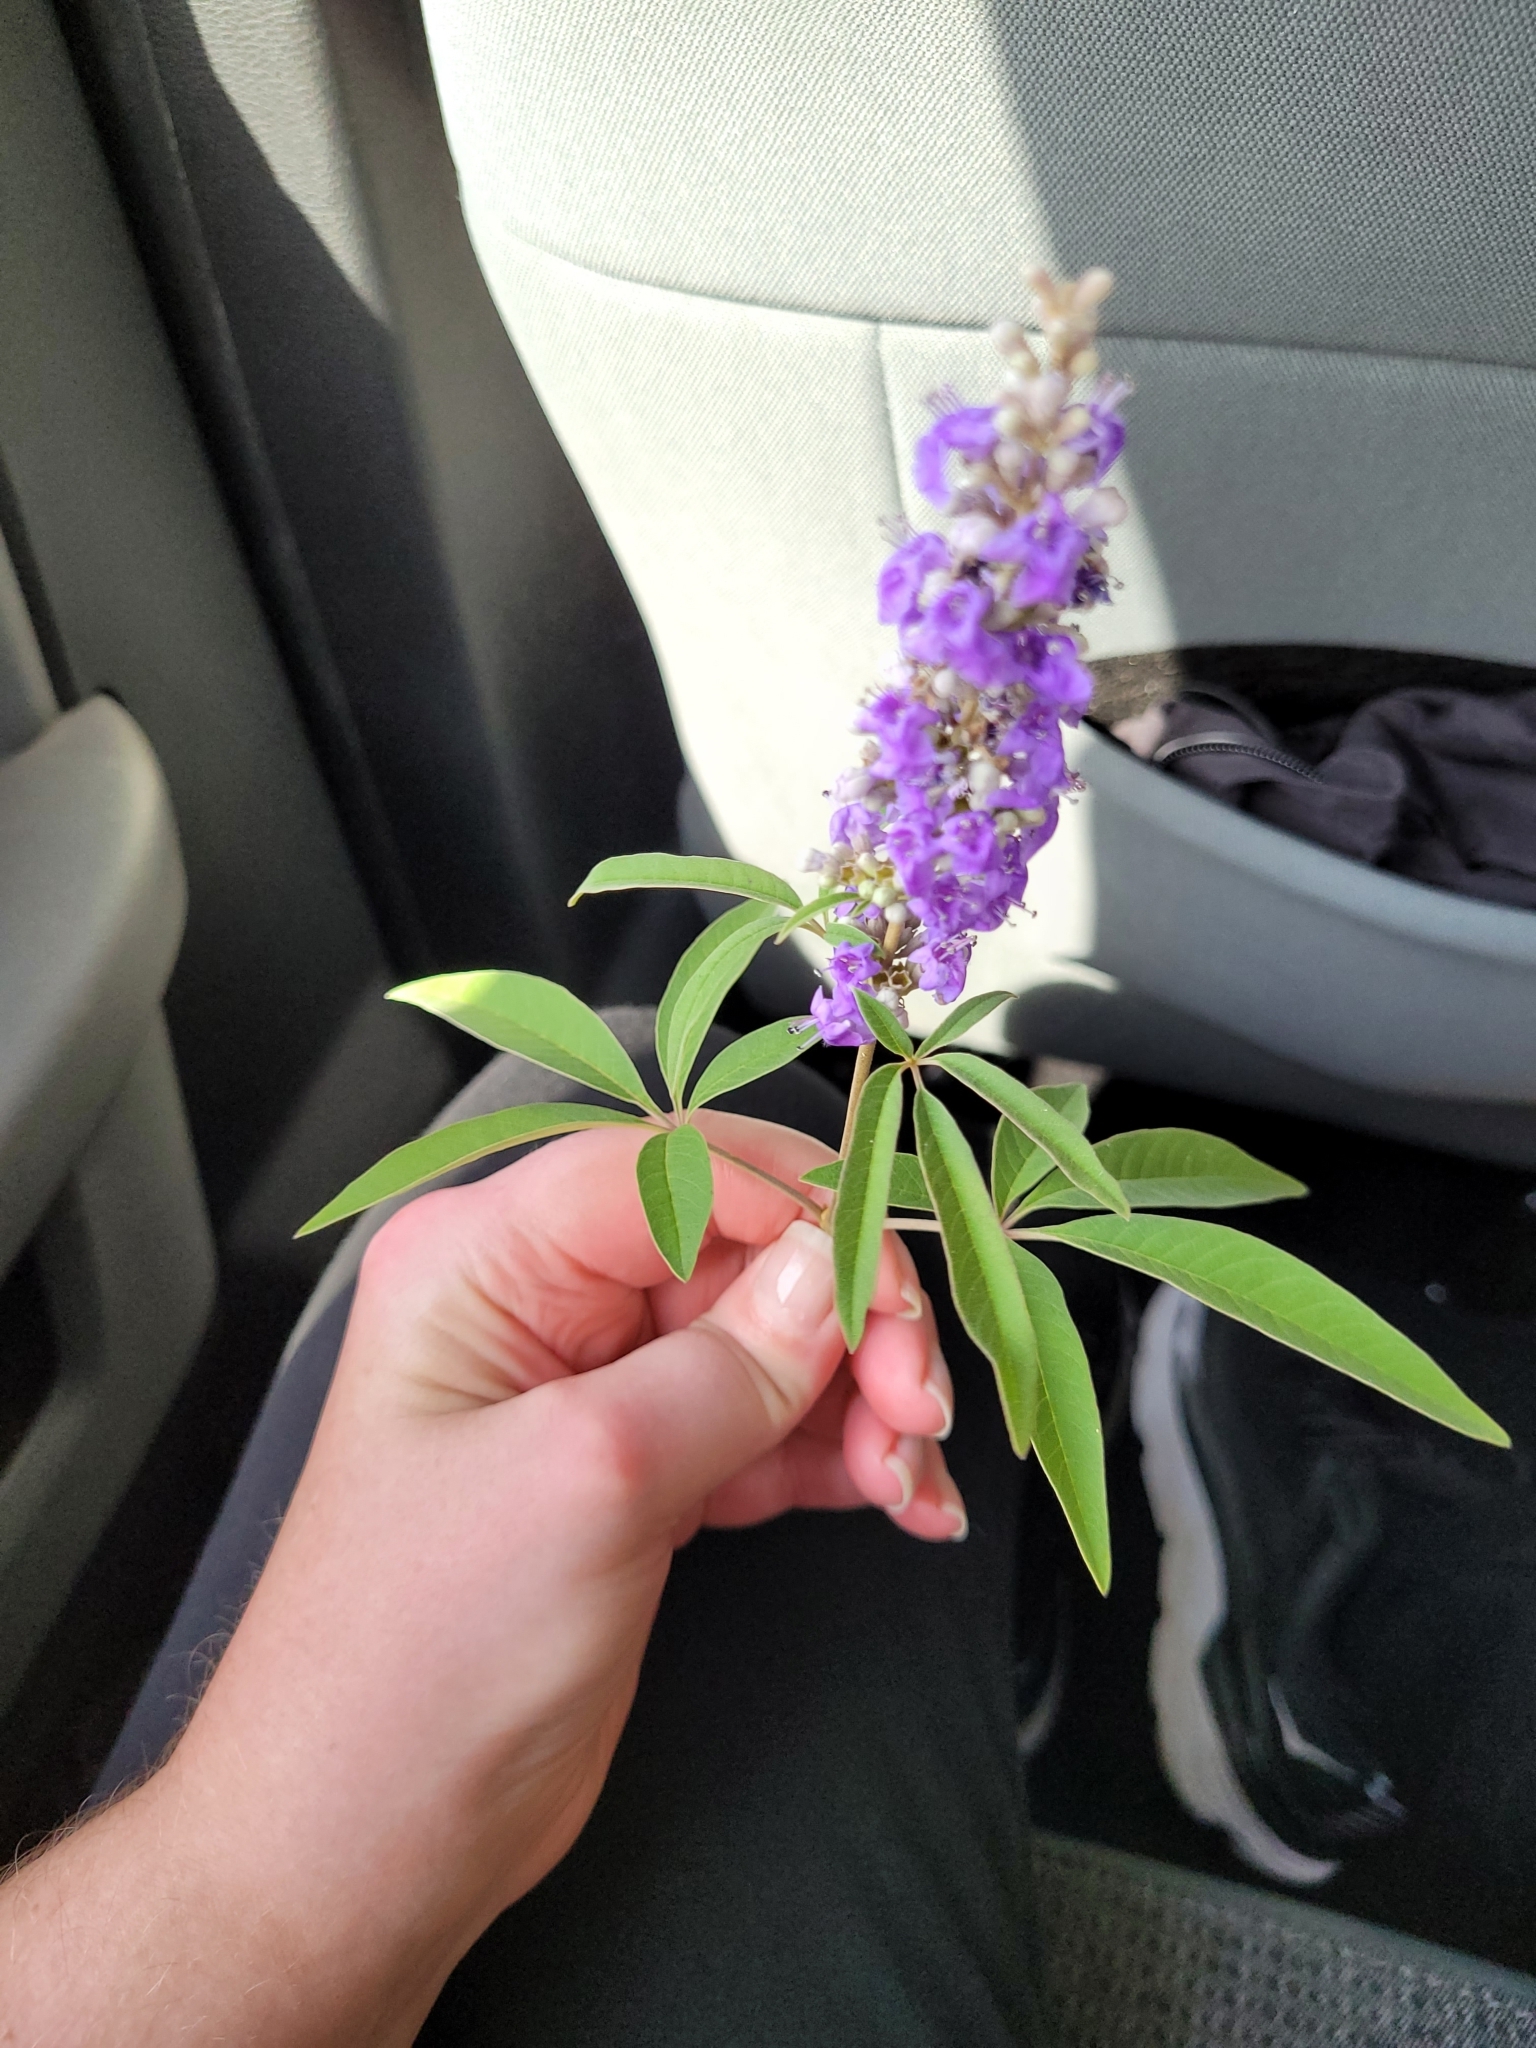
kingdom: Plantae
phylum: Tracheophyta
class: Magnoliopsida
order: Lamiales
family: Lamiaceae
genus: Vitex
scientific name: Vitex agnus-castus
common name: Chasteberry
